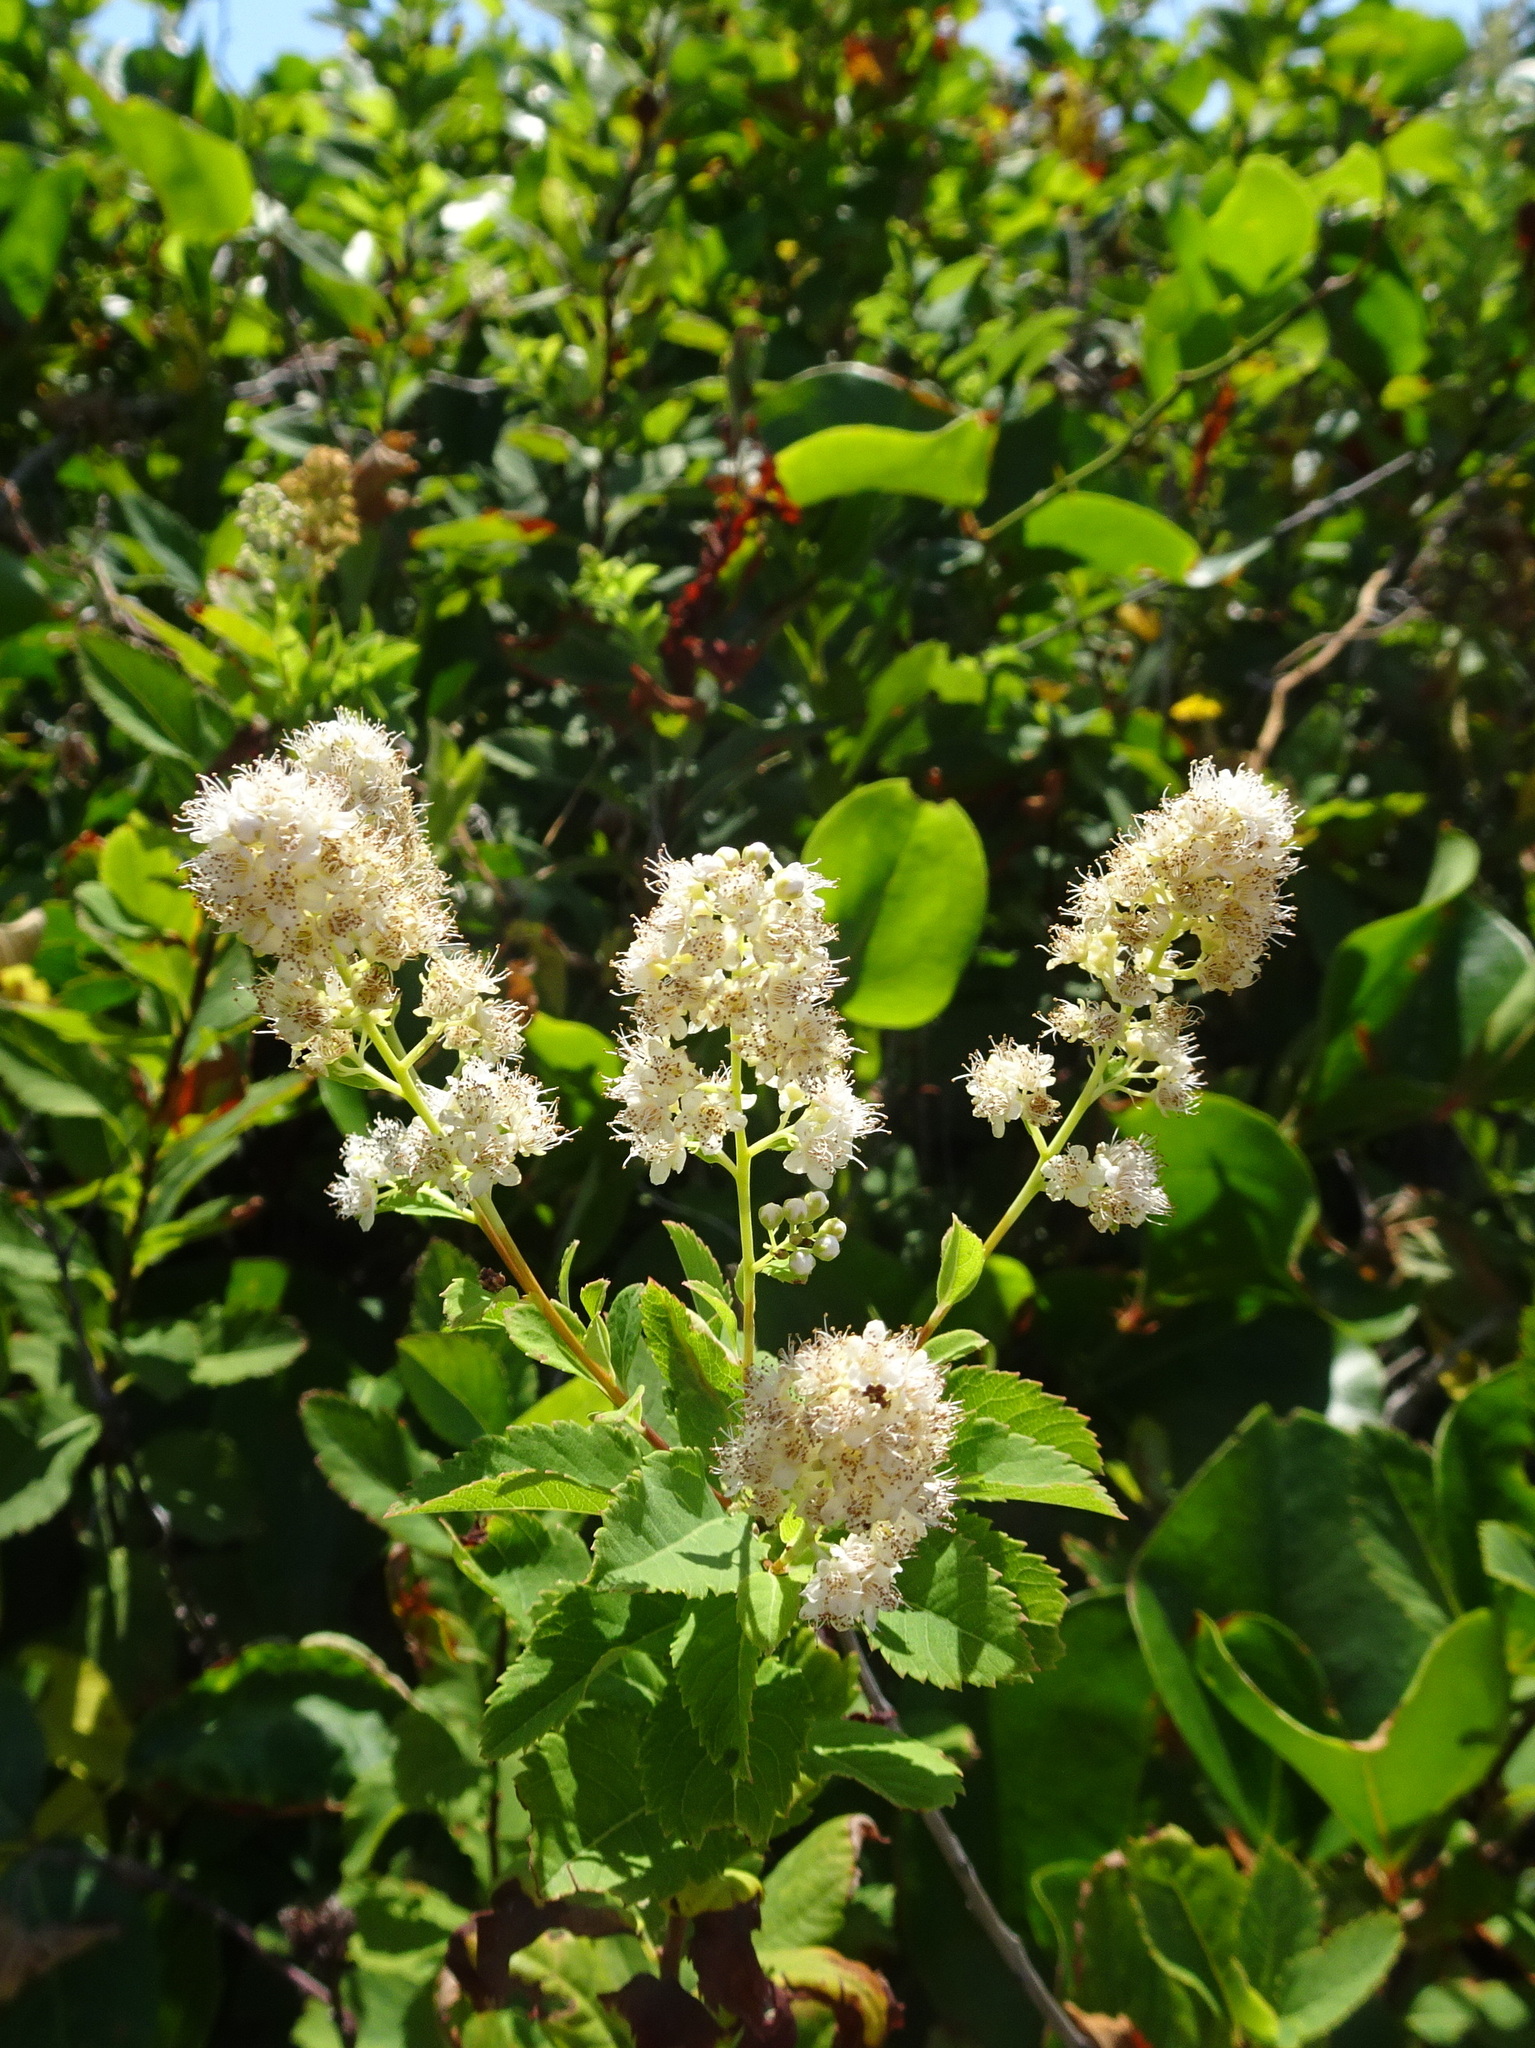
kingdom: Plantae
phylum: Tracheophyta
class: Magnoliopsida
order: Rosales
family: Rosaceae
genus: Spiraea
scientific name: Spiraea alba
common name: Pale bridewort
